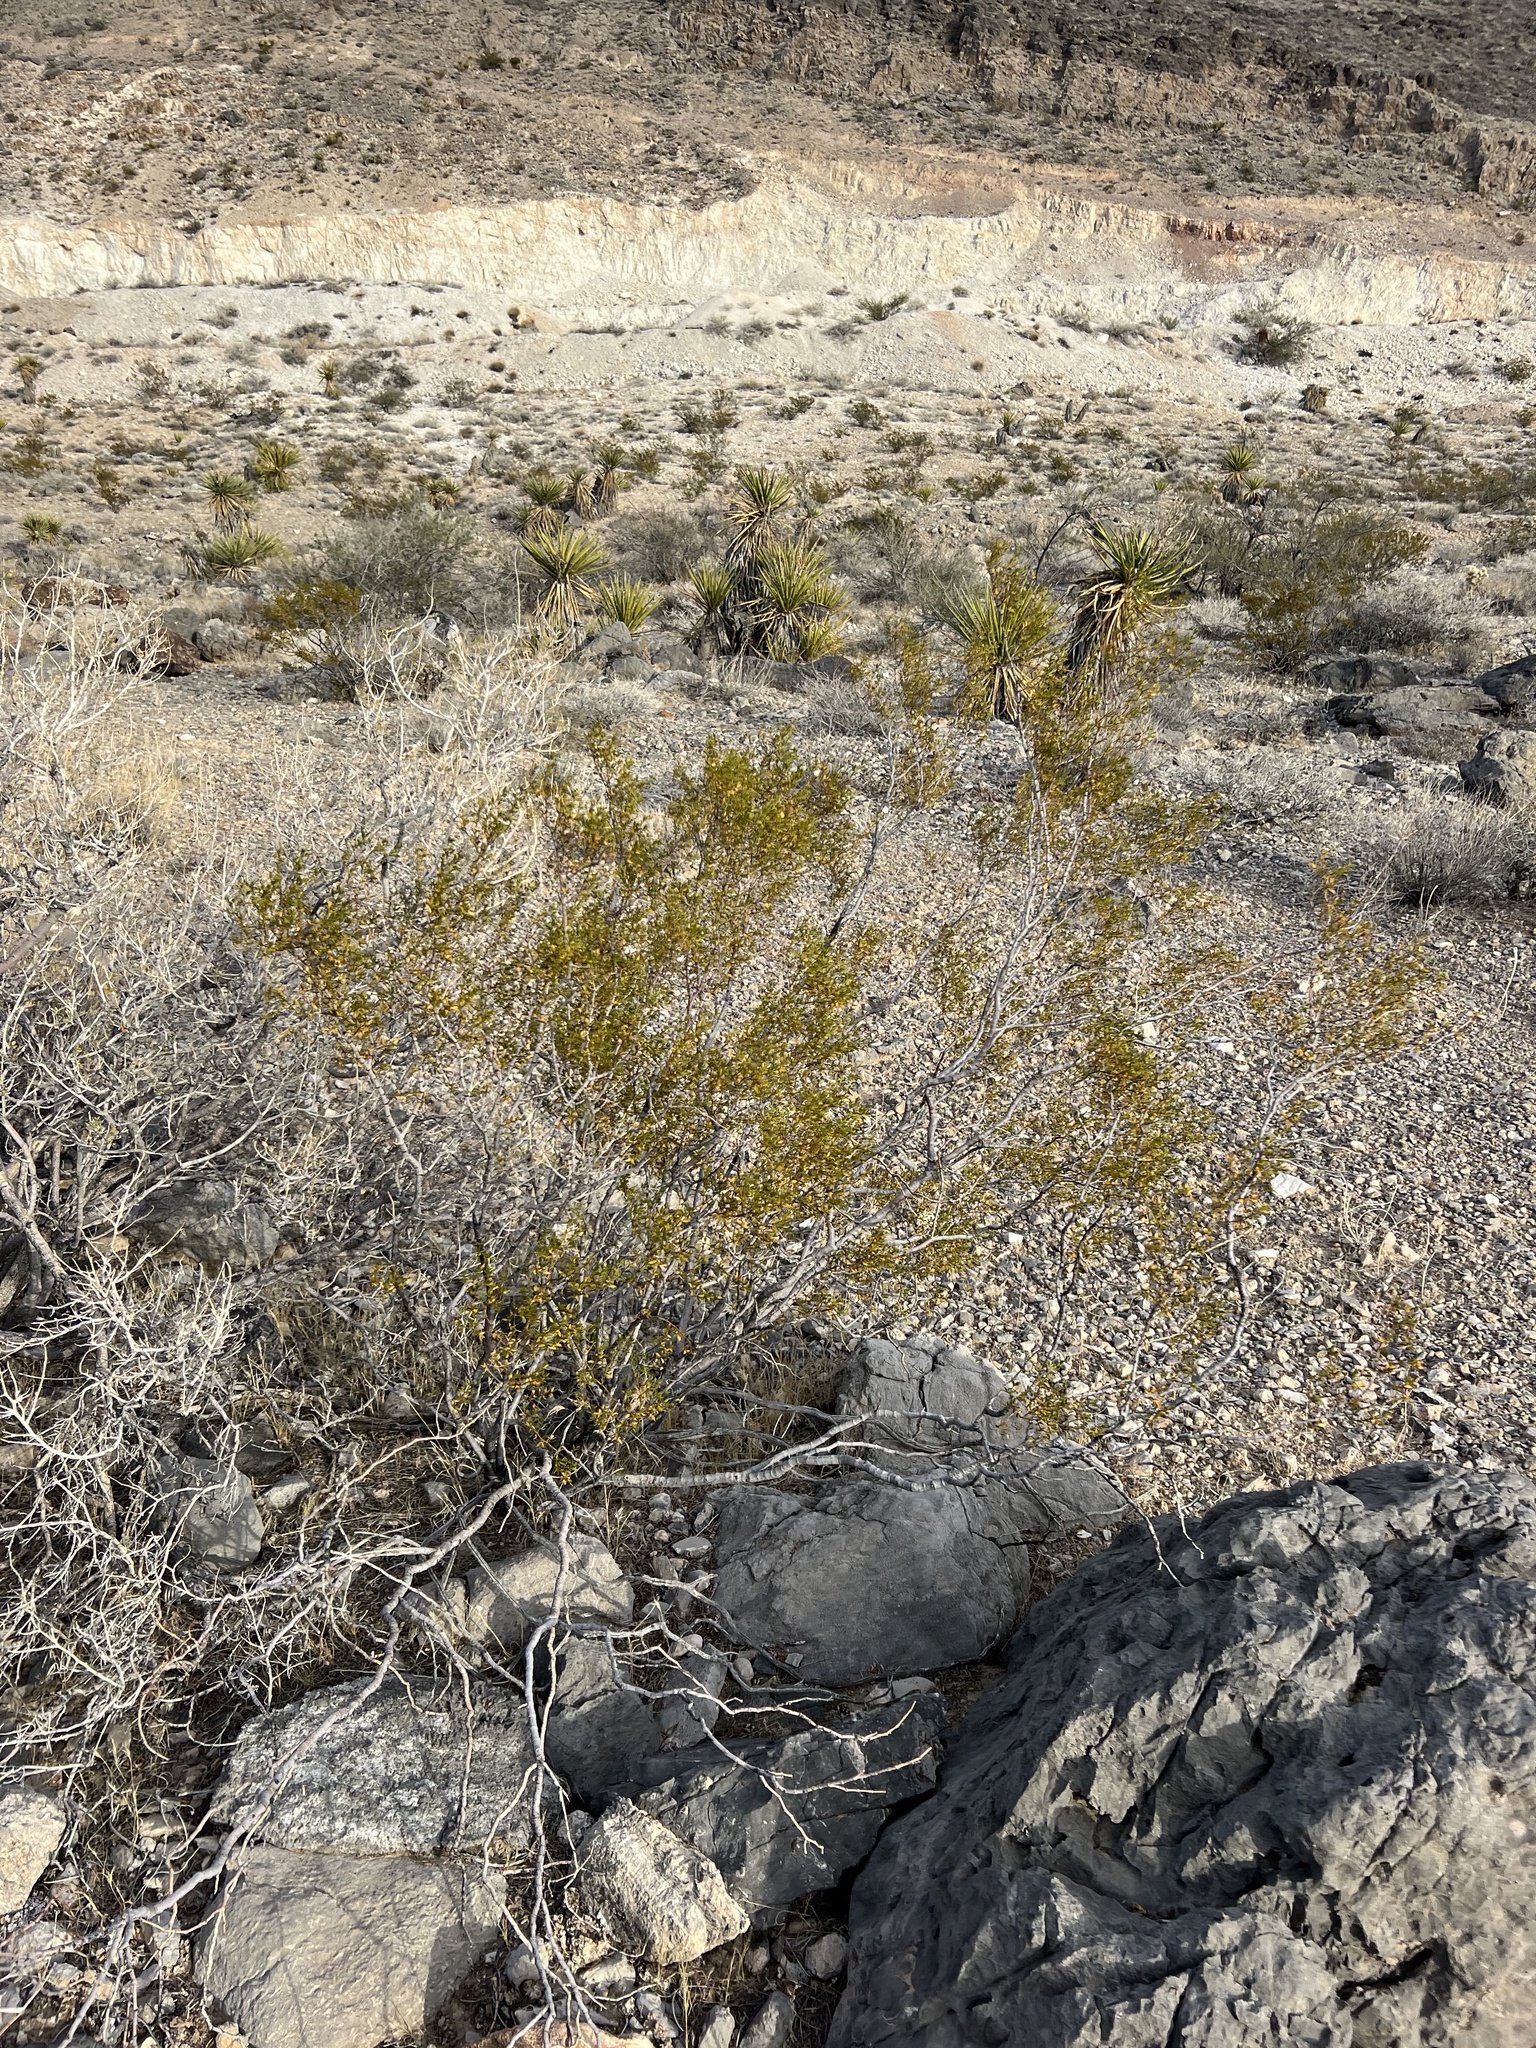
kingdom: Plantae
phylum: Tracheophyta
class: Magnoliopsida
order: Zygophyllales
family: Zygophyllaceae
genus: Larrea
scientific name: Larrea tridentata
